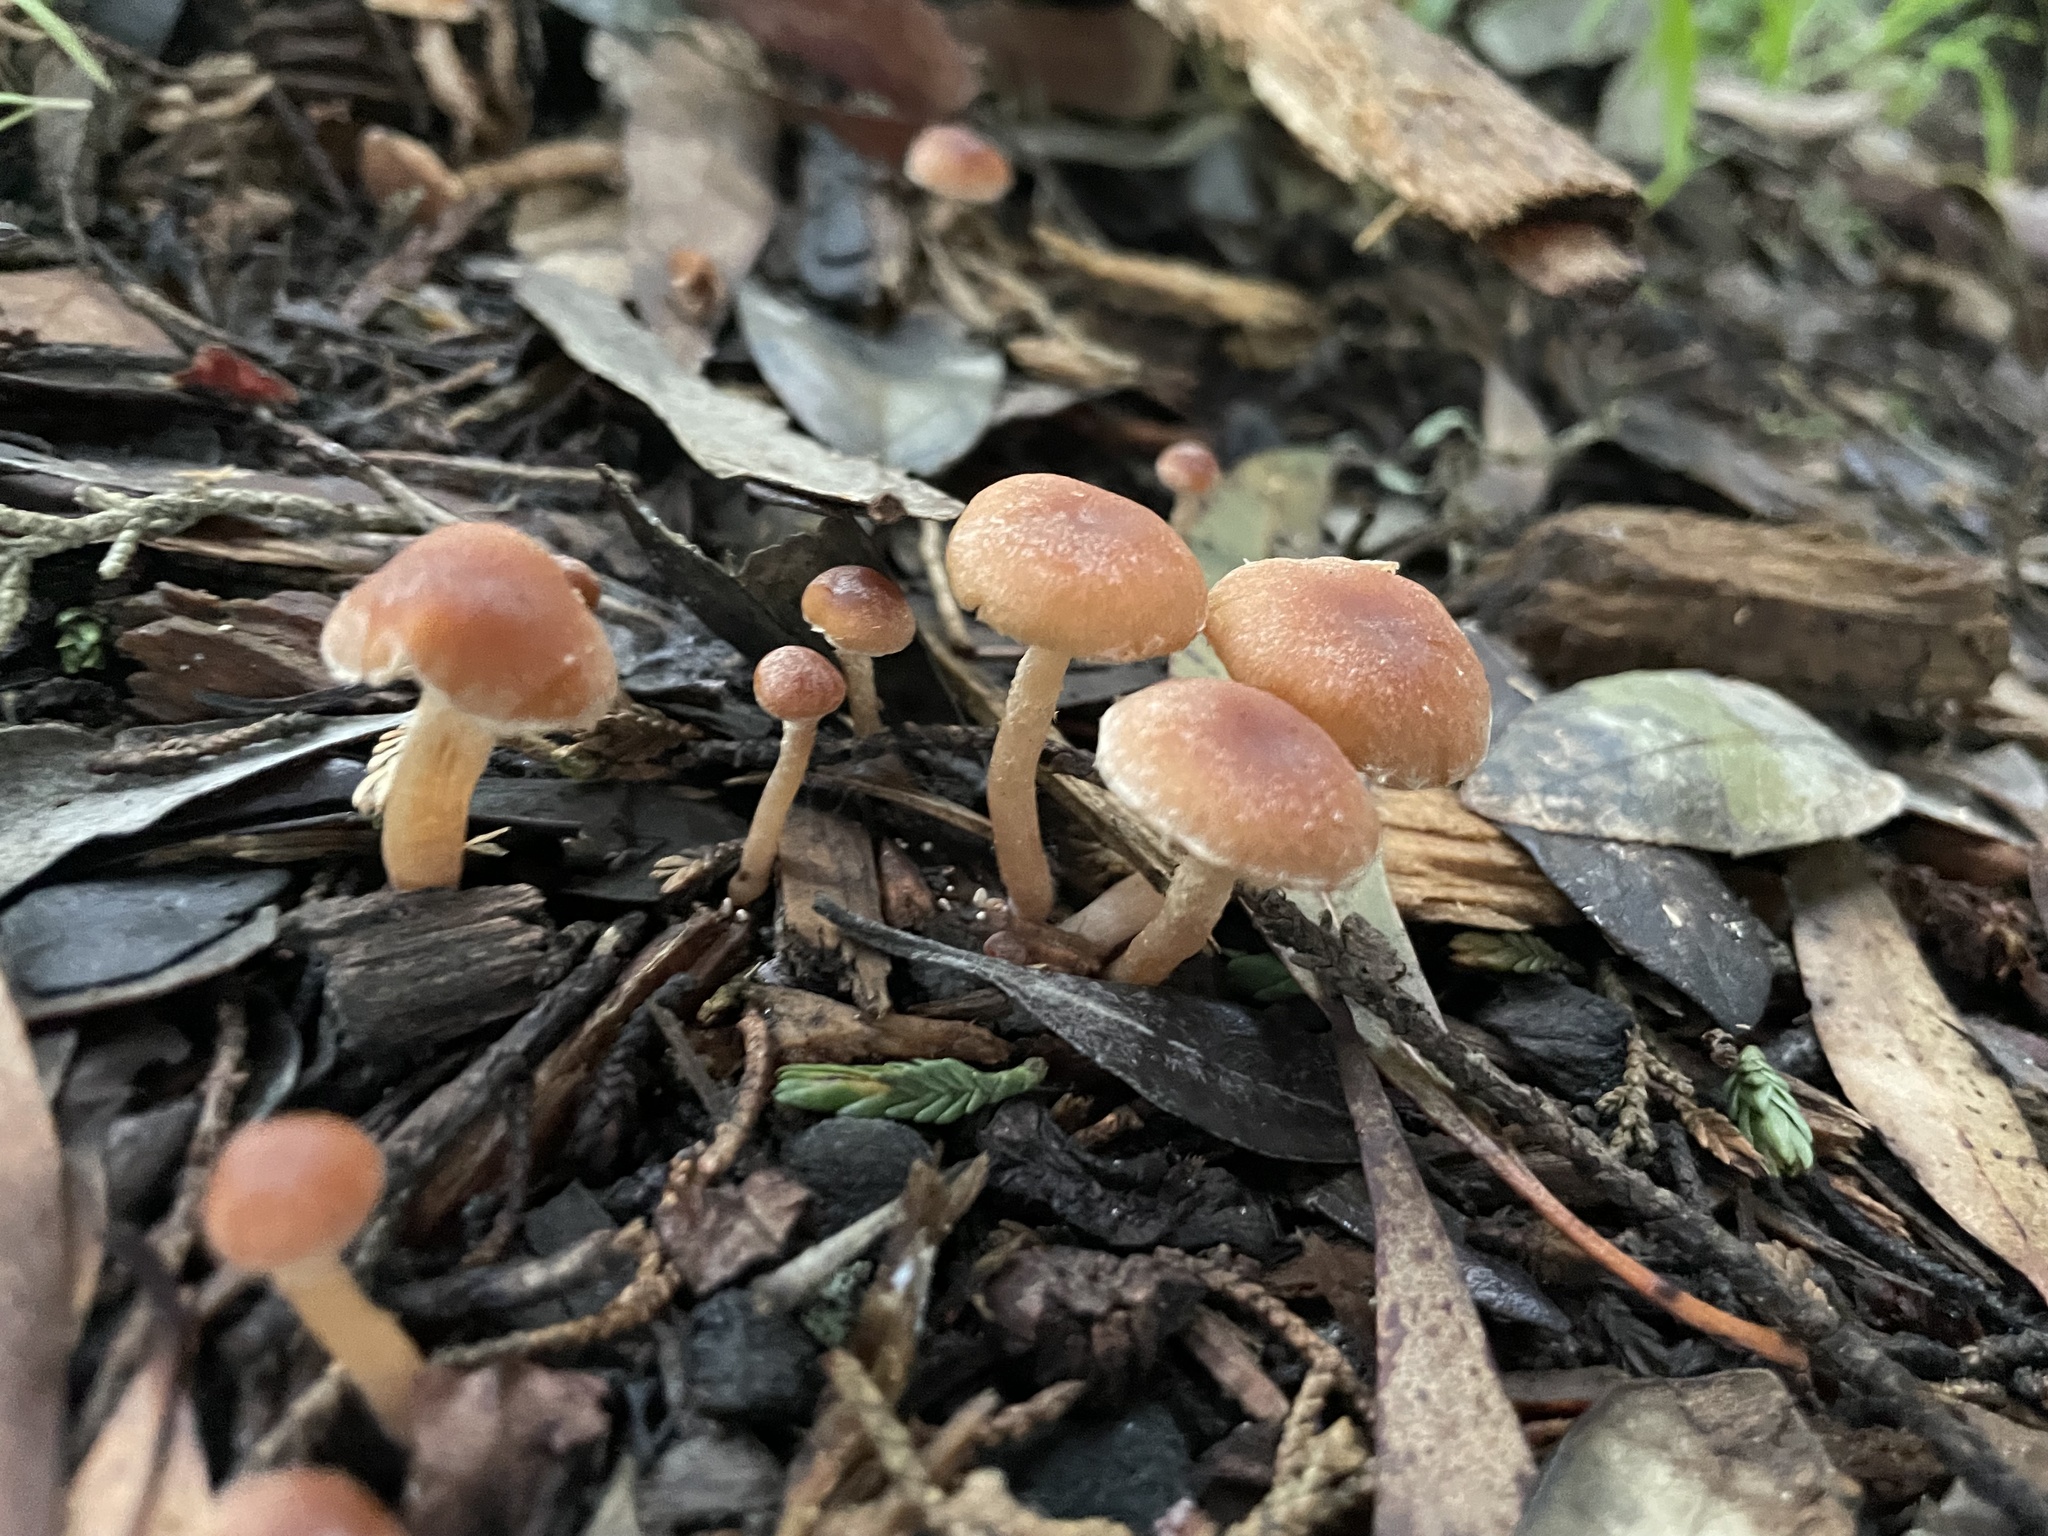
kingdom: Fungi
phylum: Basidiomycota
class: Agaricomycetes
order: Agaricales
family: Tubariaceae
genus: Tubaria
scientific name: Tubaria furfuracea
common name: Scurfy twiglet
